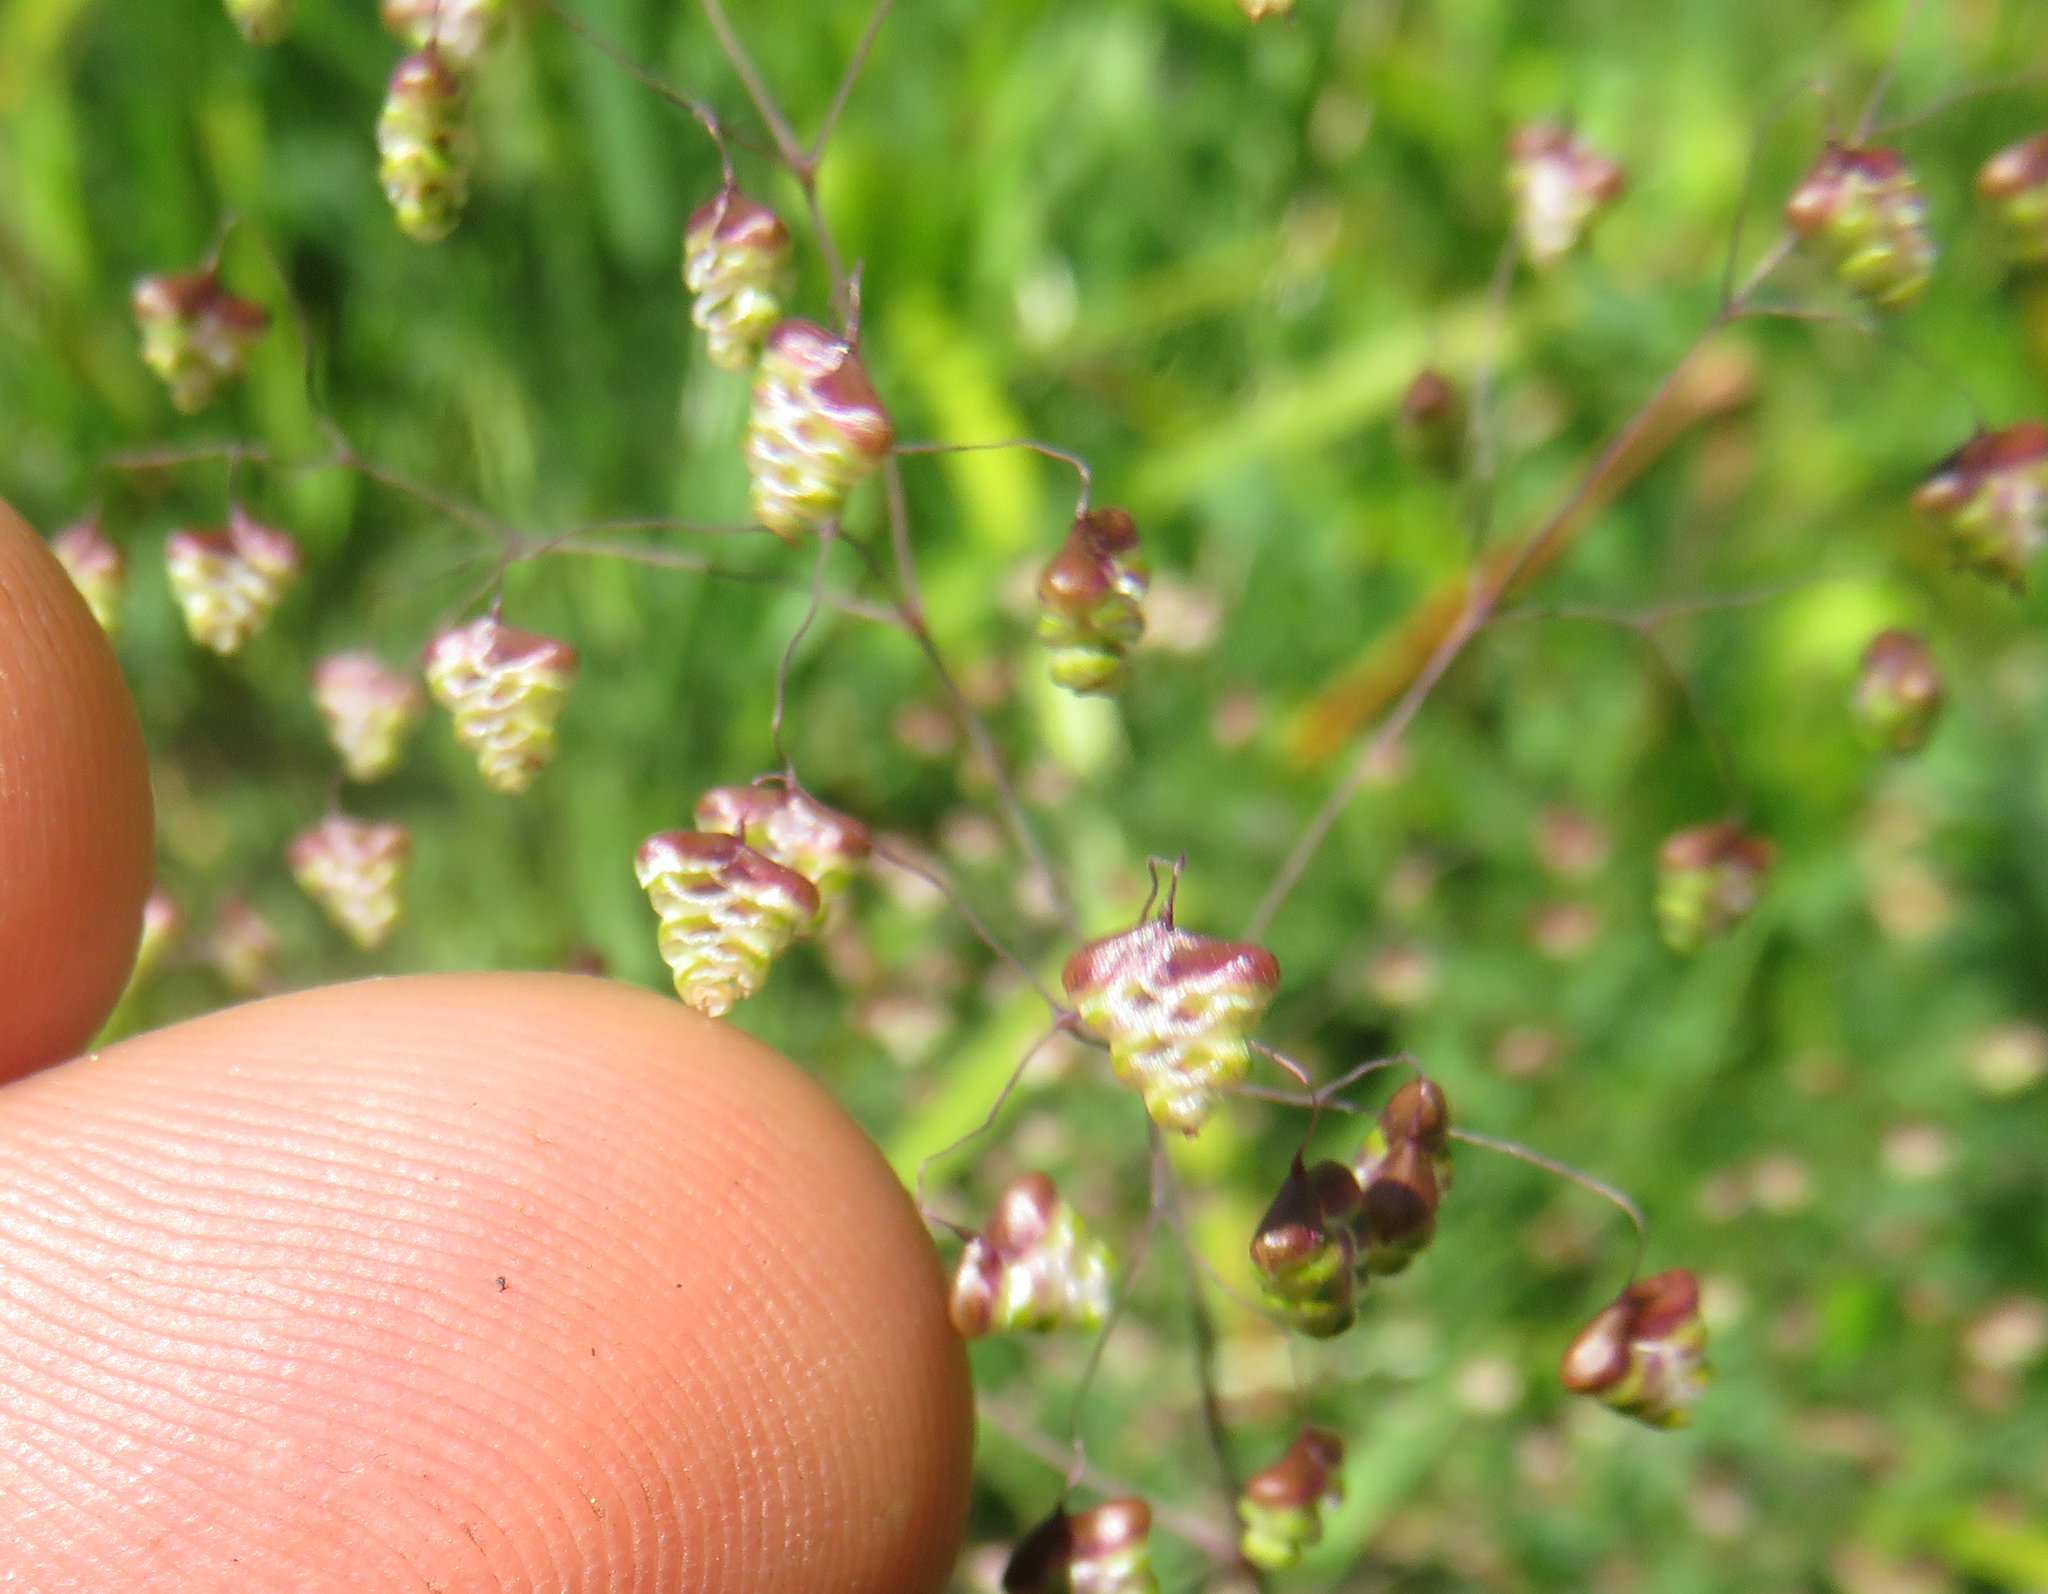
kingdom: Plantae
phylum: Tracheophyta
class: Liliopsida
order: Poales
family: Poaceae
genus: Briza
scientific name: Briza minor
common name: Lesser quaking-grass
